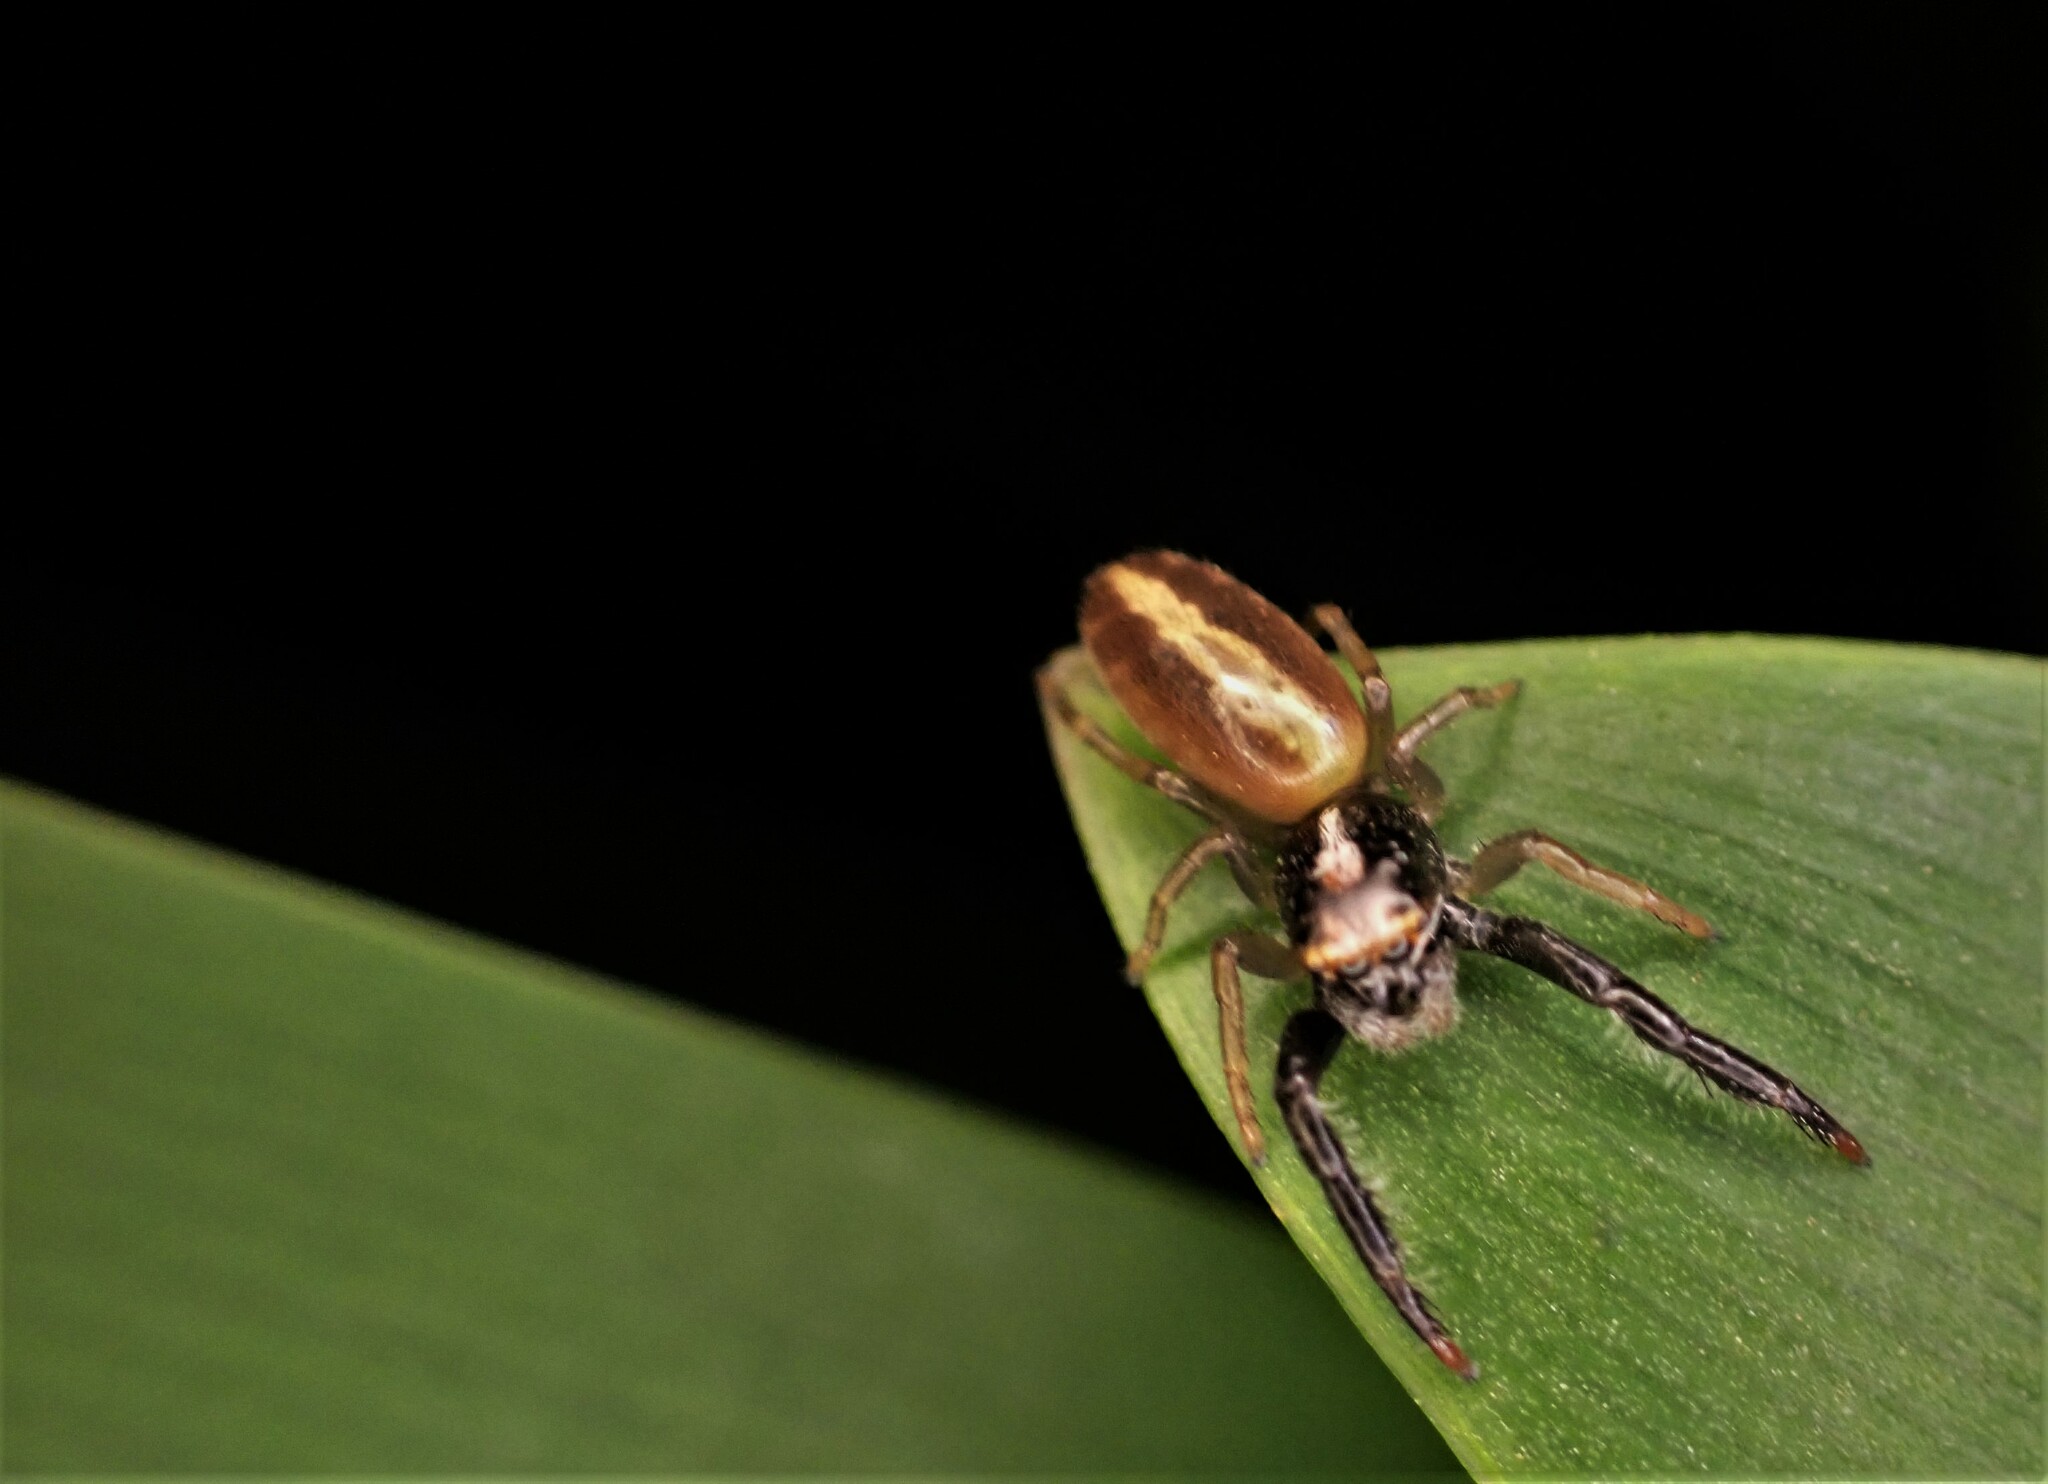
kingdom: Animalia
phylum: Arthropoda
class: Arachnida
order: Araneae
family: Salticidae
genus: Trite
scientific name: Trite planiceps
